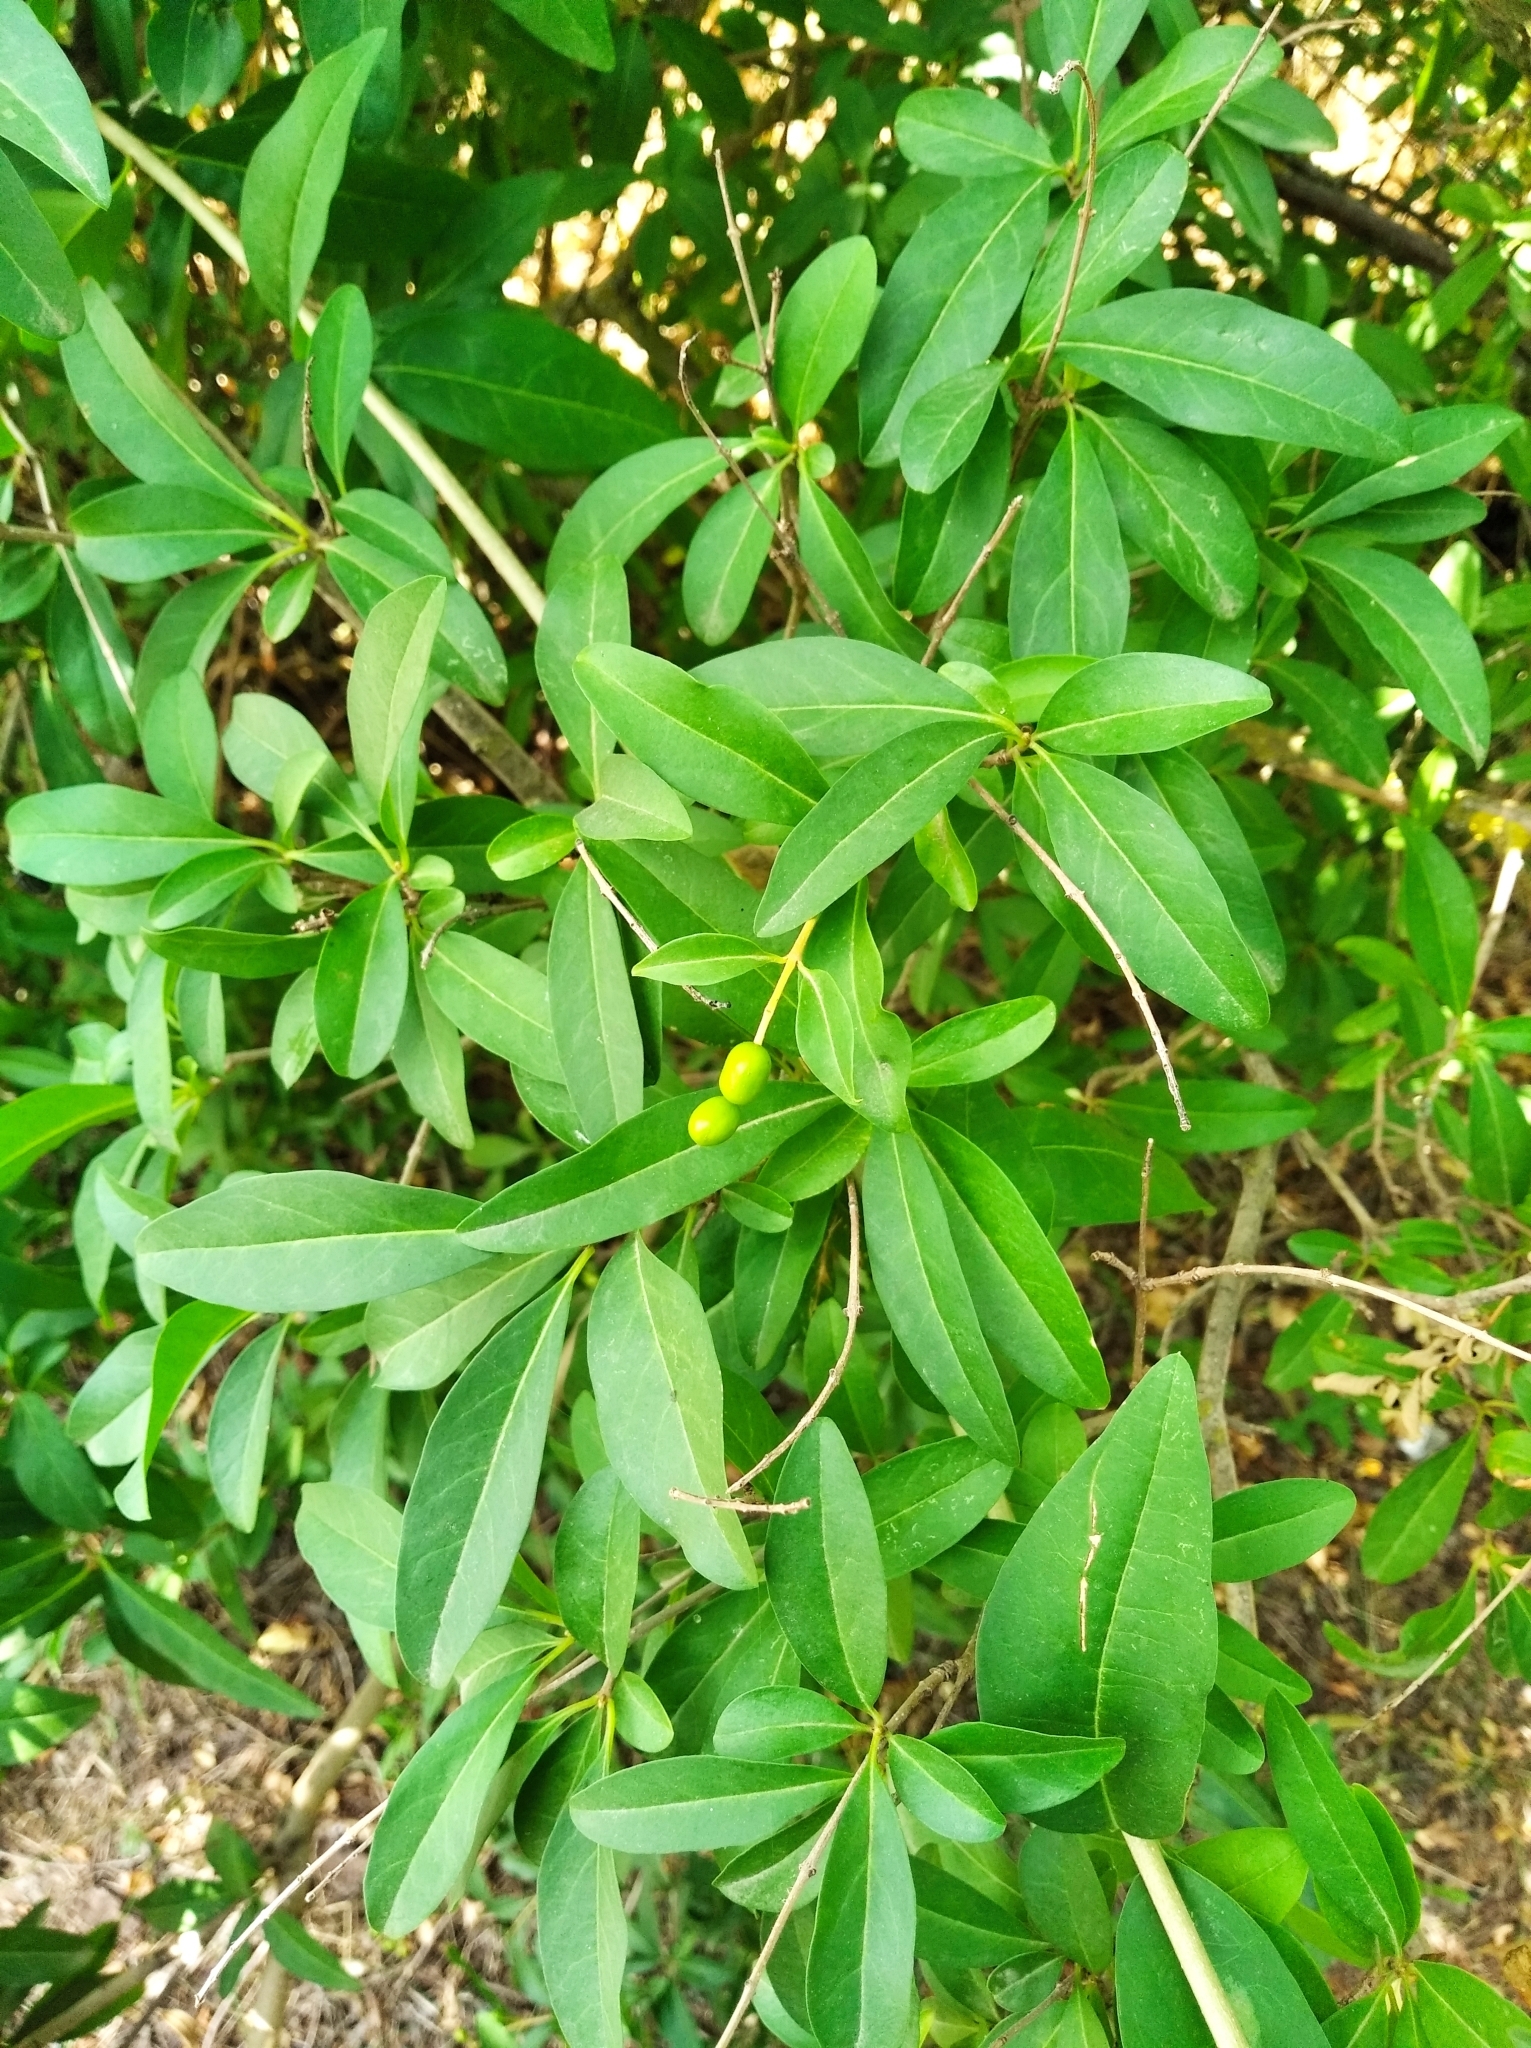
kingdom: Plantae
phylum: Tracheophyta
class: Magnoliopsida
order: Lamiales
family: Oleaceae
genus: Ligustrum
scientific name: Ligustrum vulgare
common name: Wild privet
